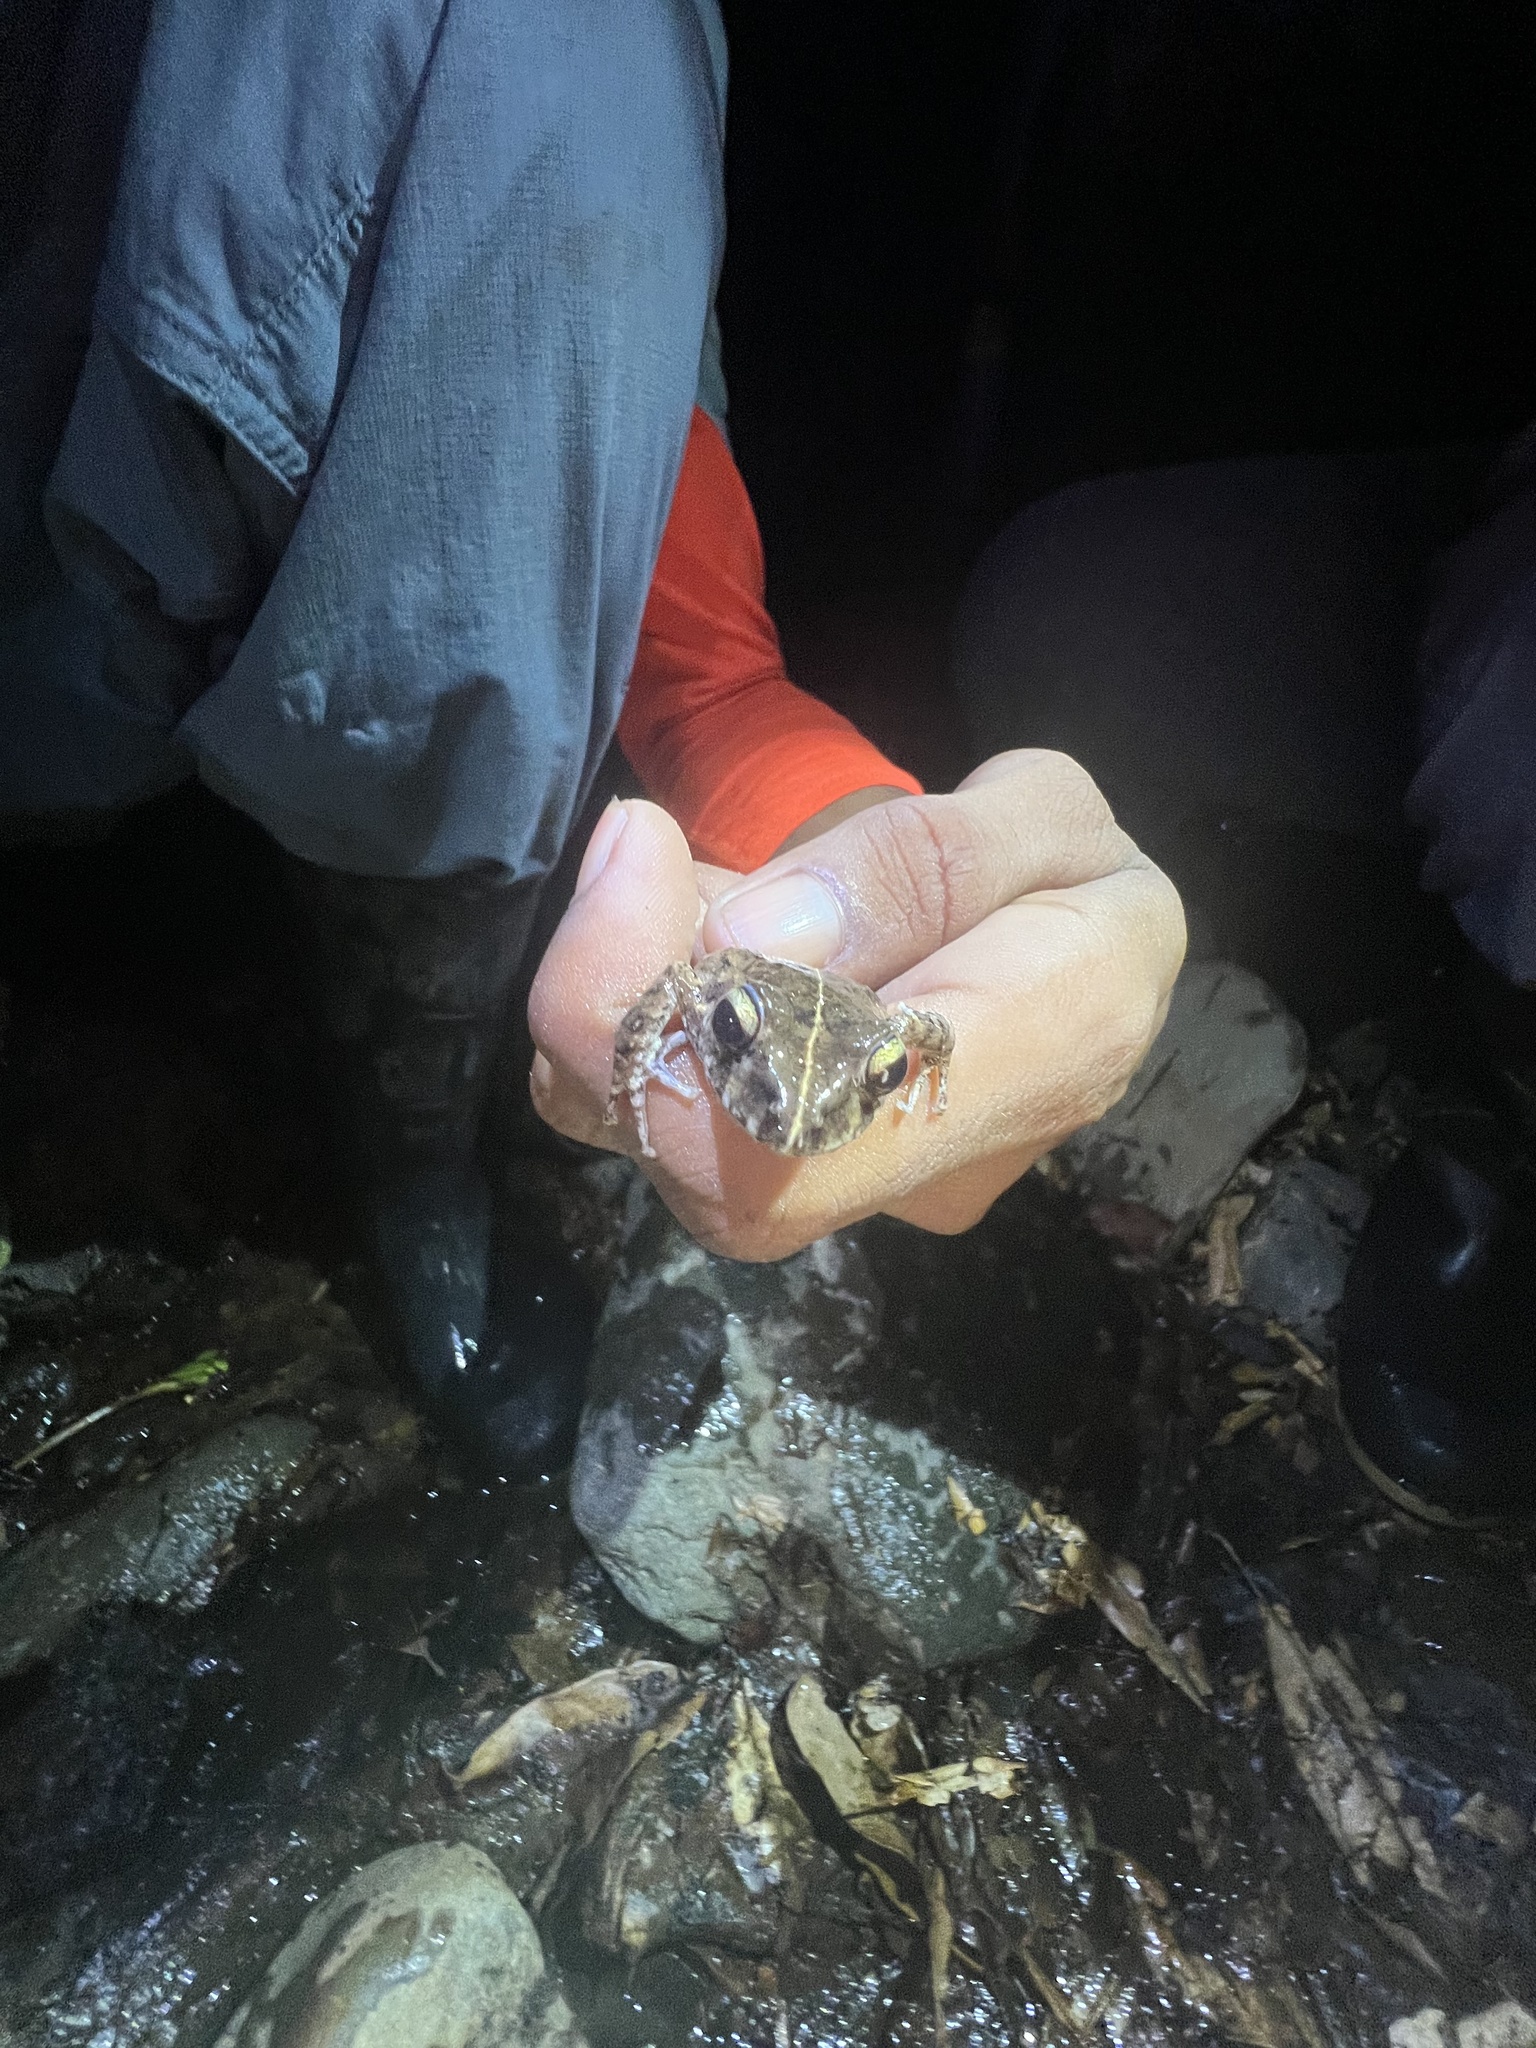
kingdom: Animalia
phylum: Chordata
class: Amphibia
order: Anura
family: Craugastoridae
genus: Craugastor
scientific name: Craugastor sabrinus
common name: Long-legged streamfrog
